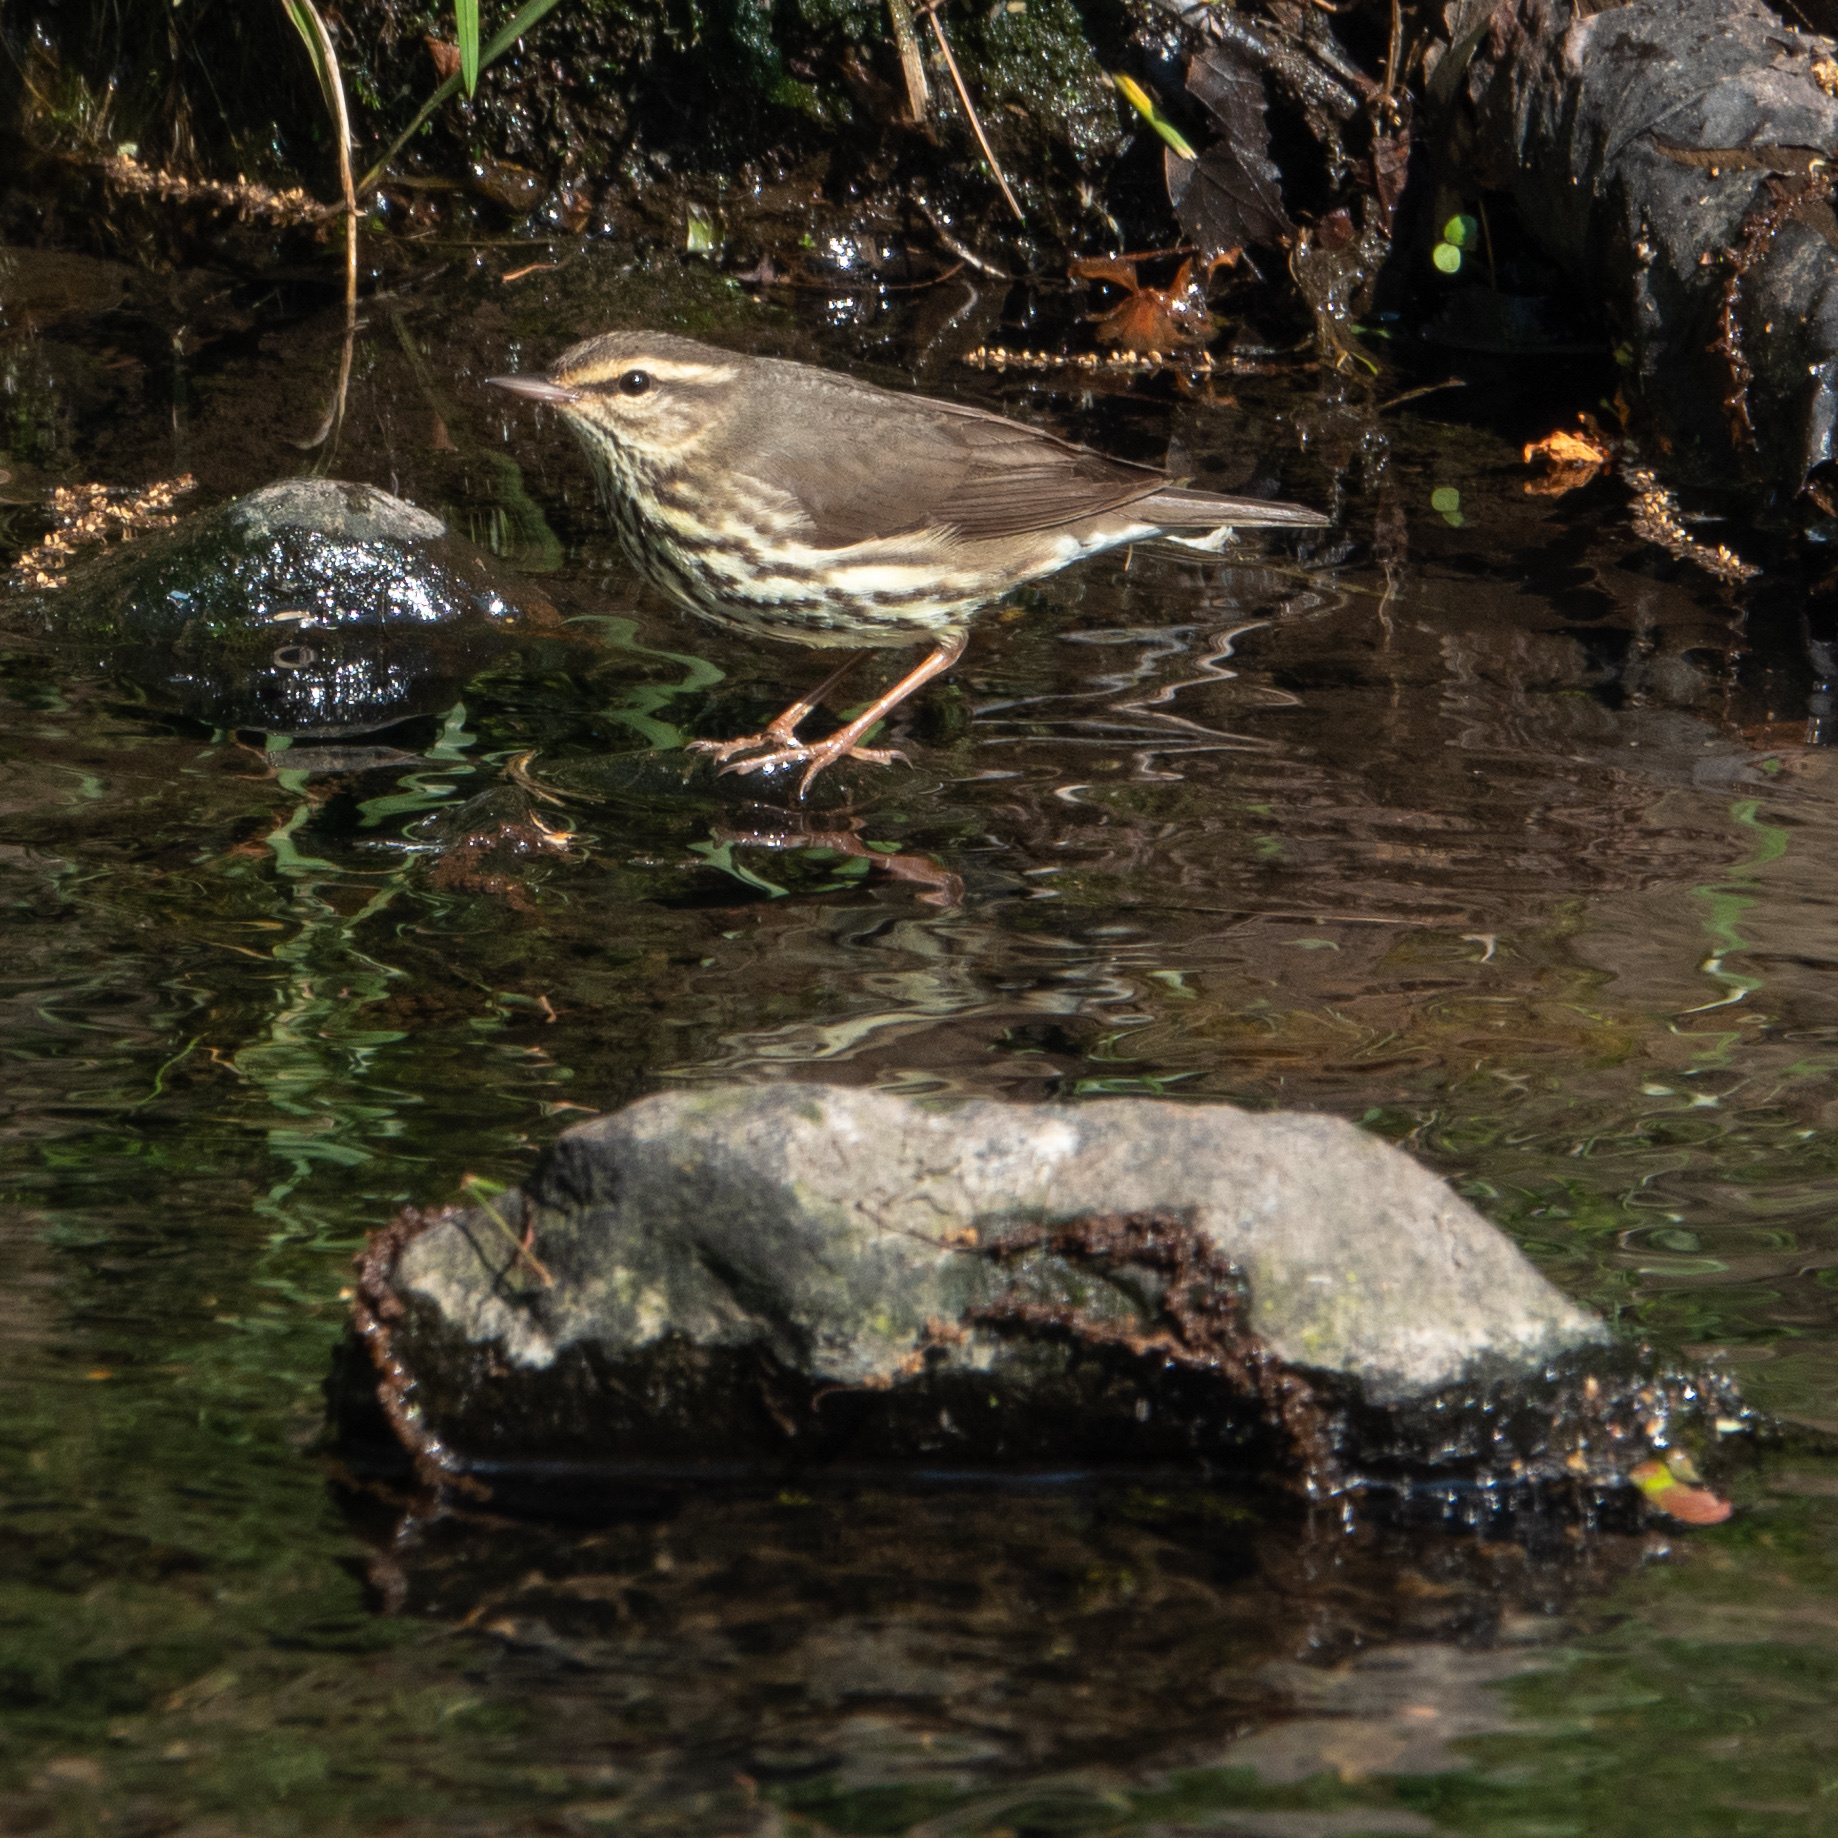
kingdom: Animalia
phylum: Chordata
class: Aves
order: Passeriformes
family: Parulidae
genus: Parkesia
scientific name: Parkesia noveboracensis
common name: Northern waterthrush
